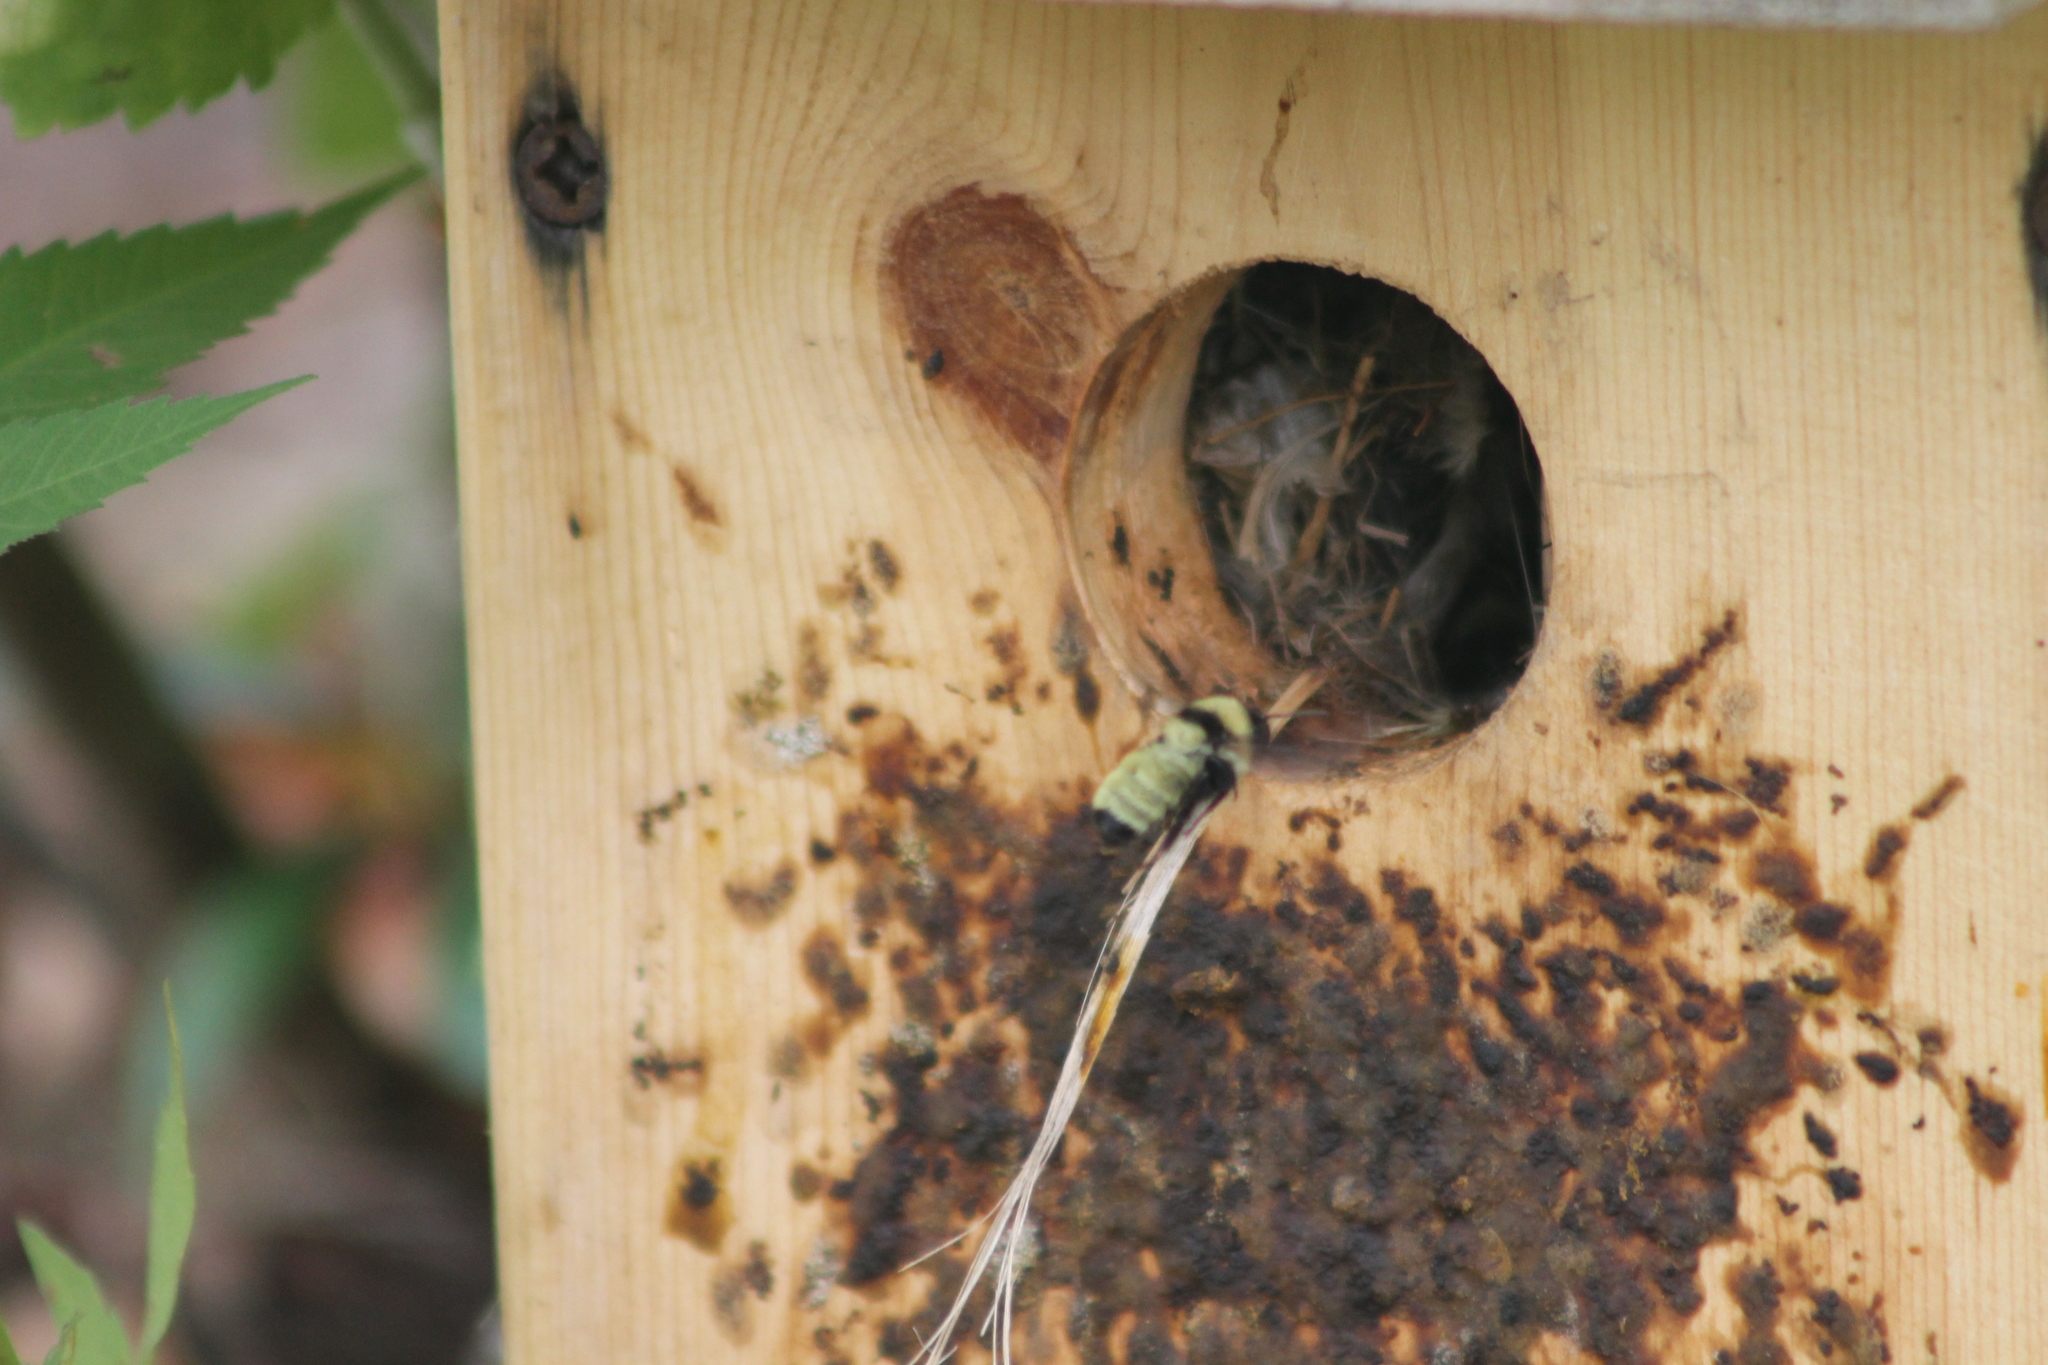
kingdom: Animalia
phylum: Arthropoda
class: Insecta
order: Hymenoptera
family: Apidae
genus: Bombus
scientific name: Bombus fervidus
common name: Yellow bumble bee
